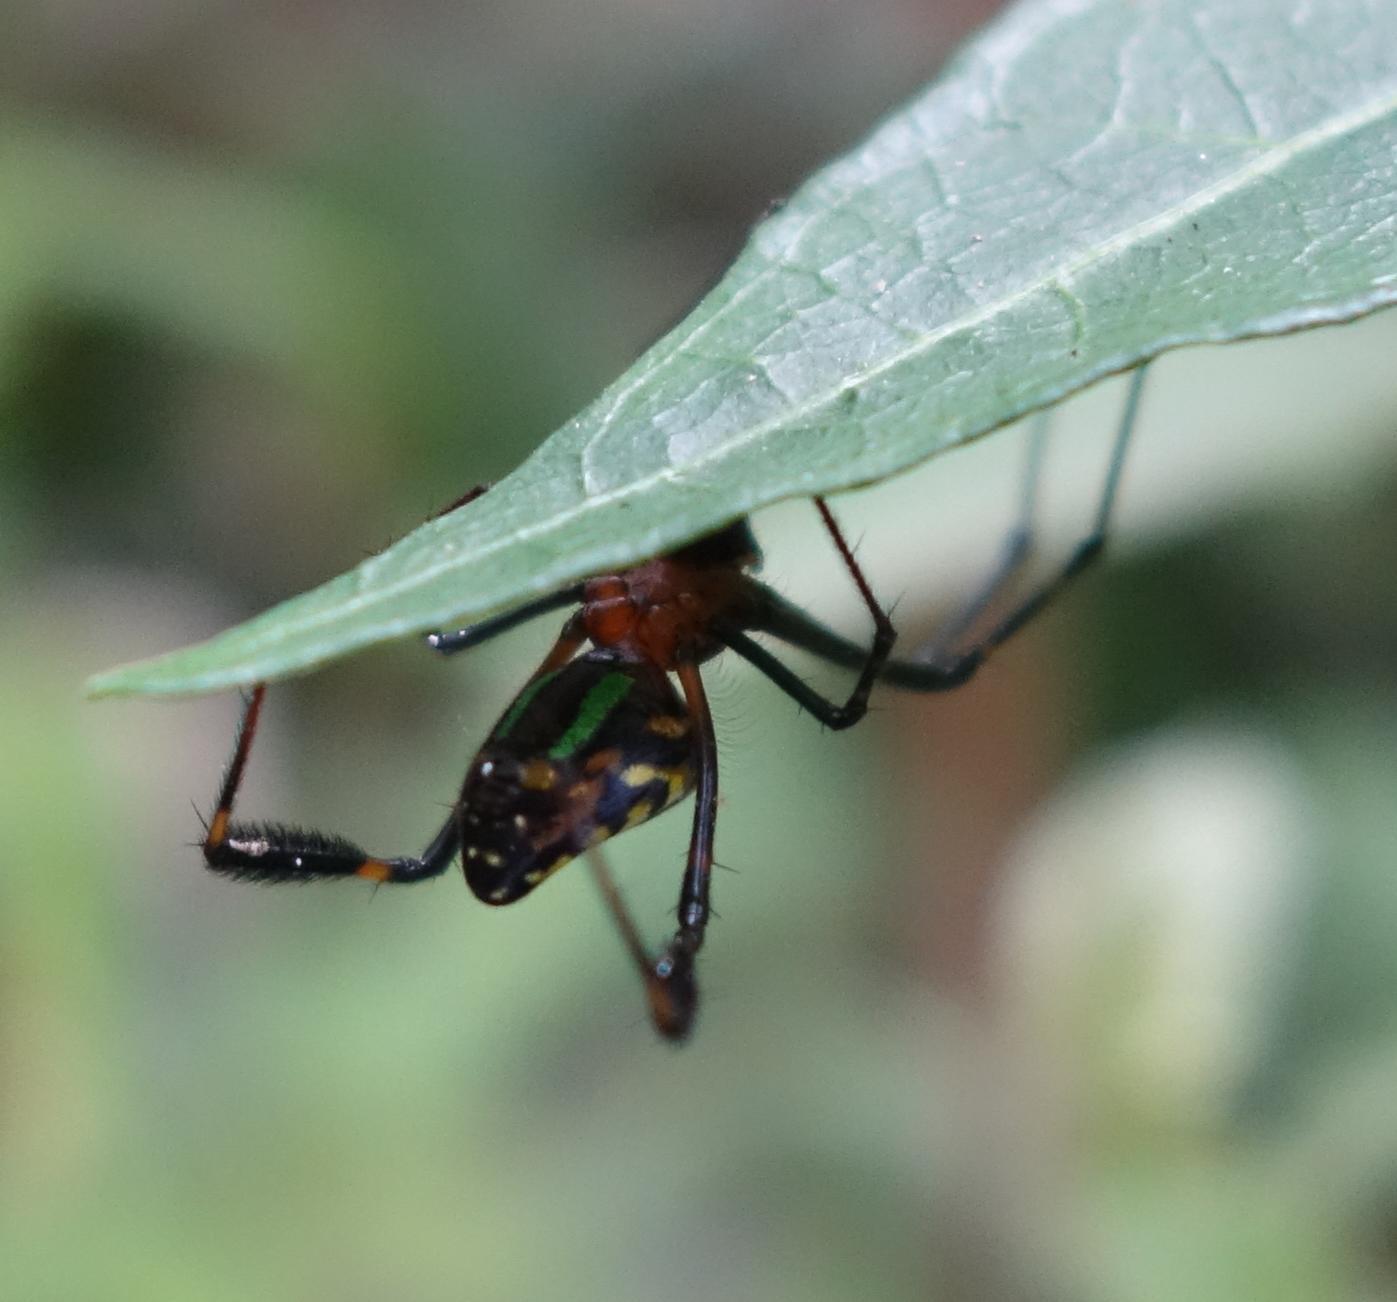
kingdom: Animalia
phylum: Arthropoda
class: Arachnida
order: Araneae
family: Tetragnathidae
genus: Leucauge
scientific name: Leucauge tessellata
